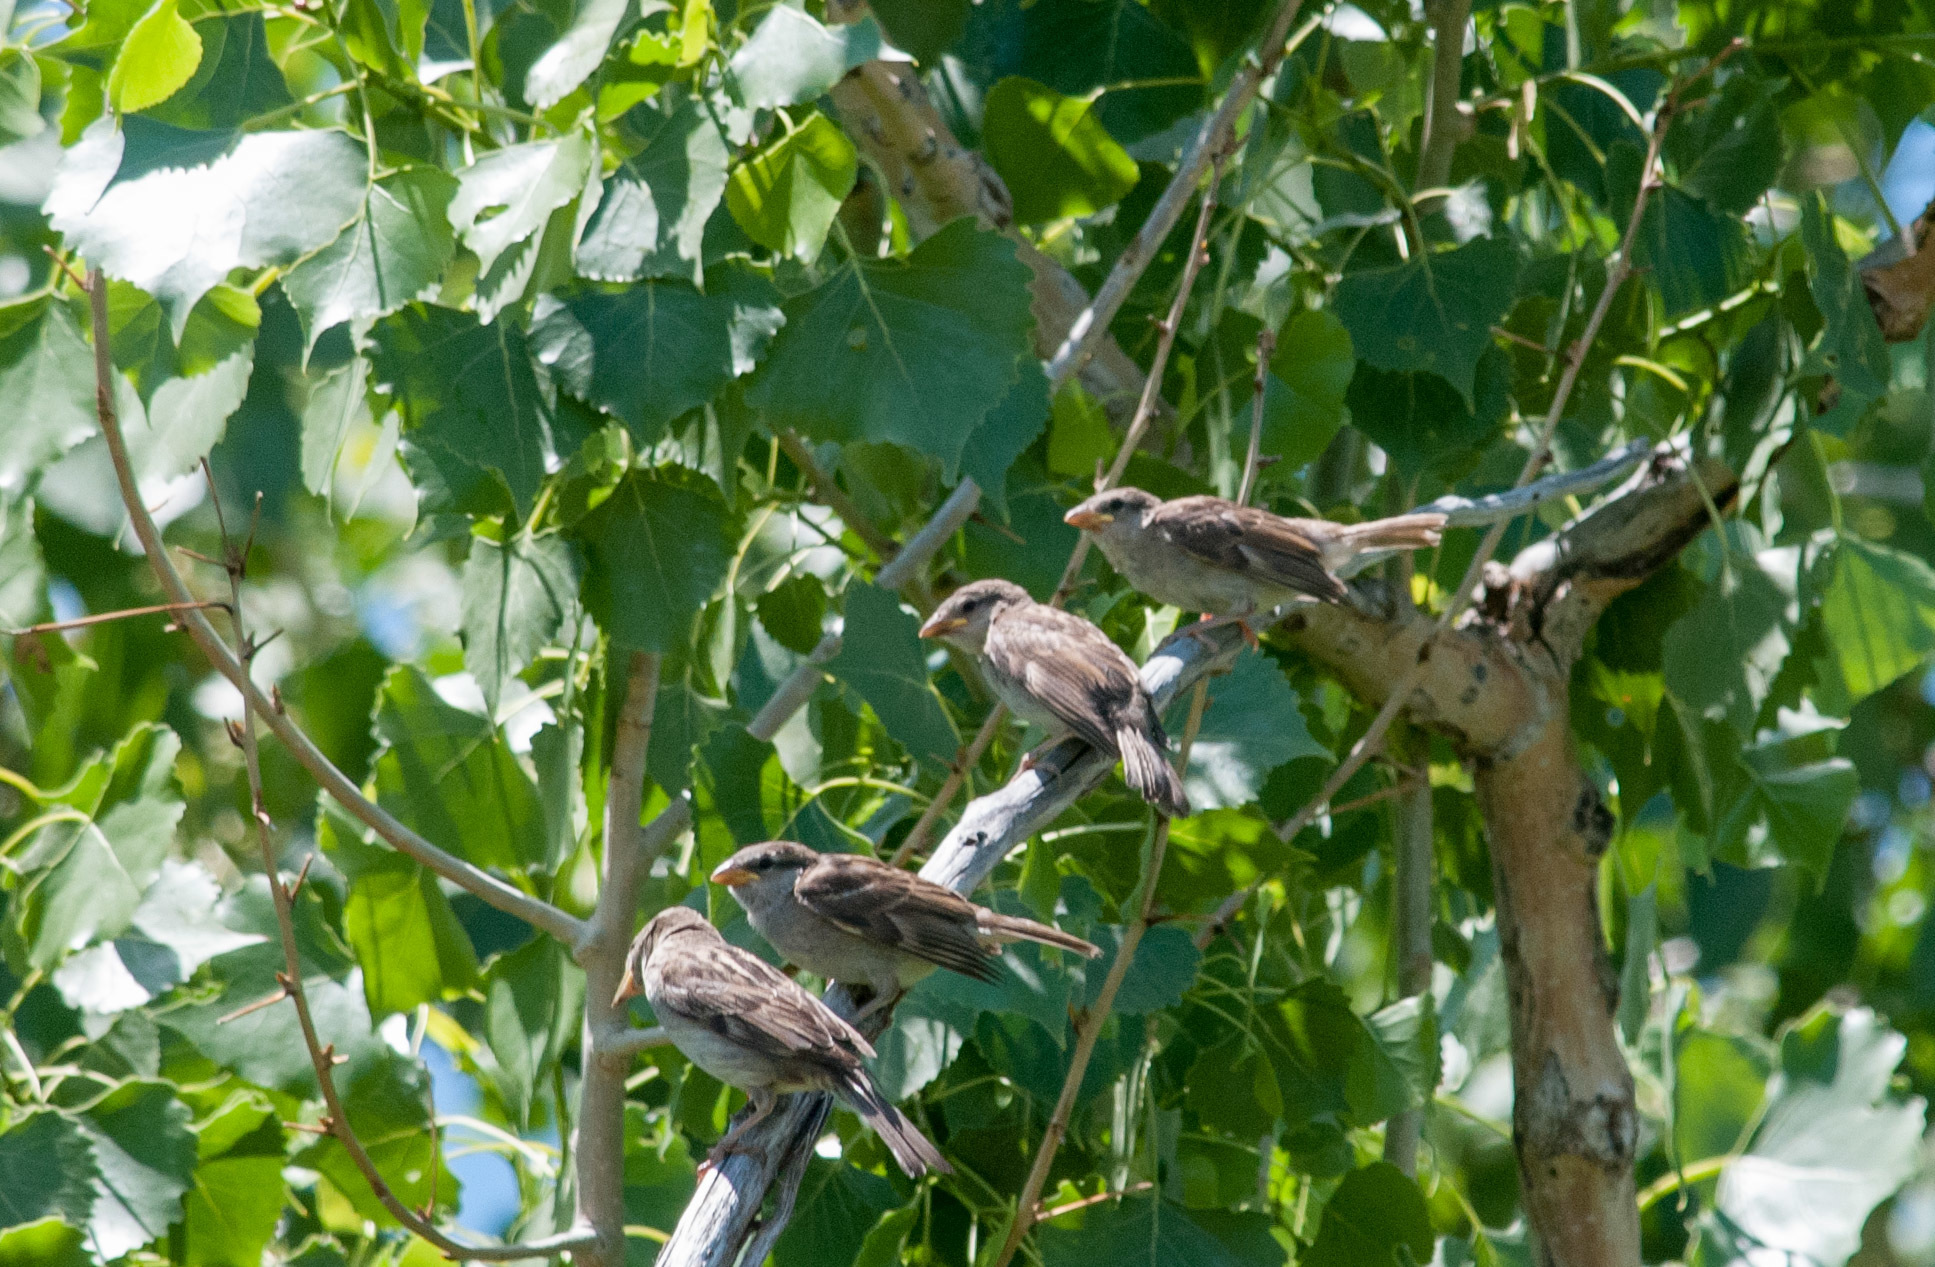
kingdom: Animalia
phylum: Chordata
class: Aves
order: Passeriformes
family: Passeridae
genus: Passer
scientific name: Passer domesticus
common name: House sparrow
